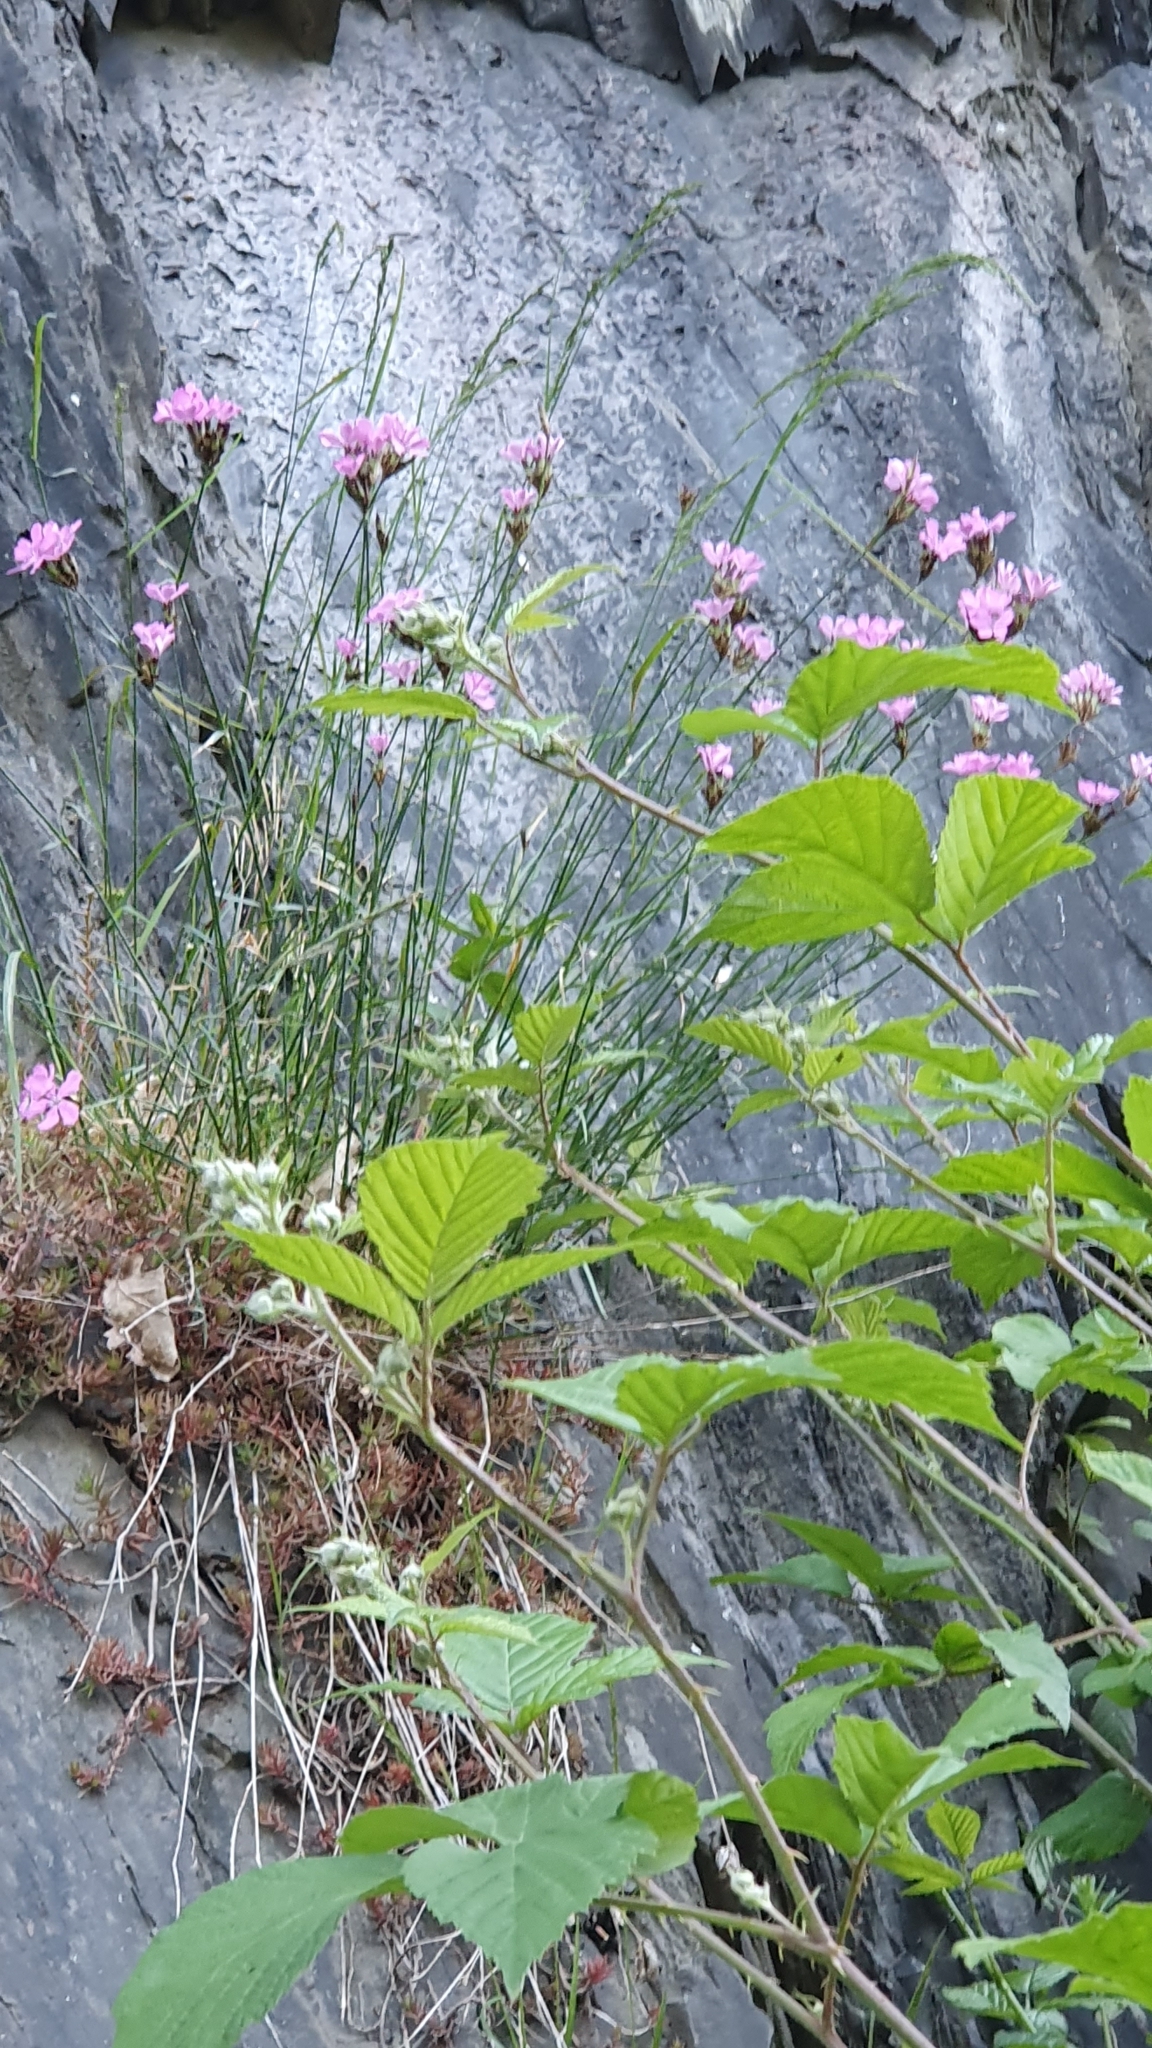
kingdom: Plantae
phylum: Tracheophyta
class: Magnoliopsida
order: Caryophyllales
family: Caryophyllaceae
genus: Dianthus
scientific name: Dianthus carthusianorum
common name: Carthusian pink
